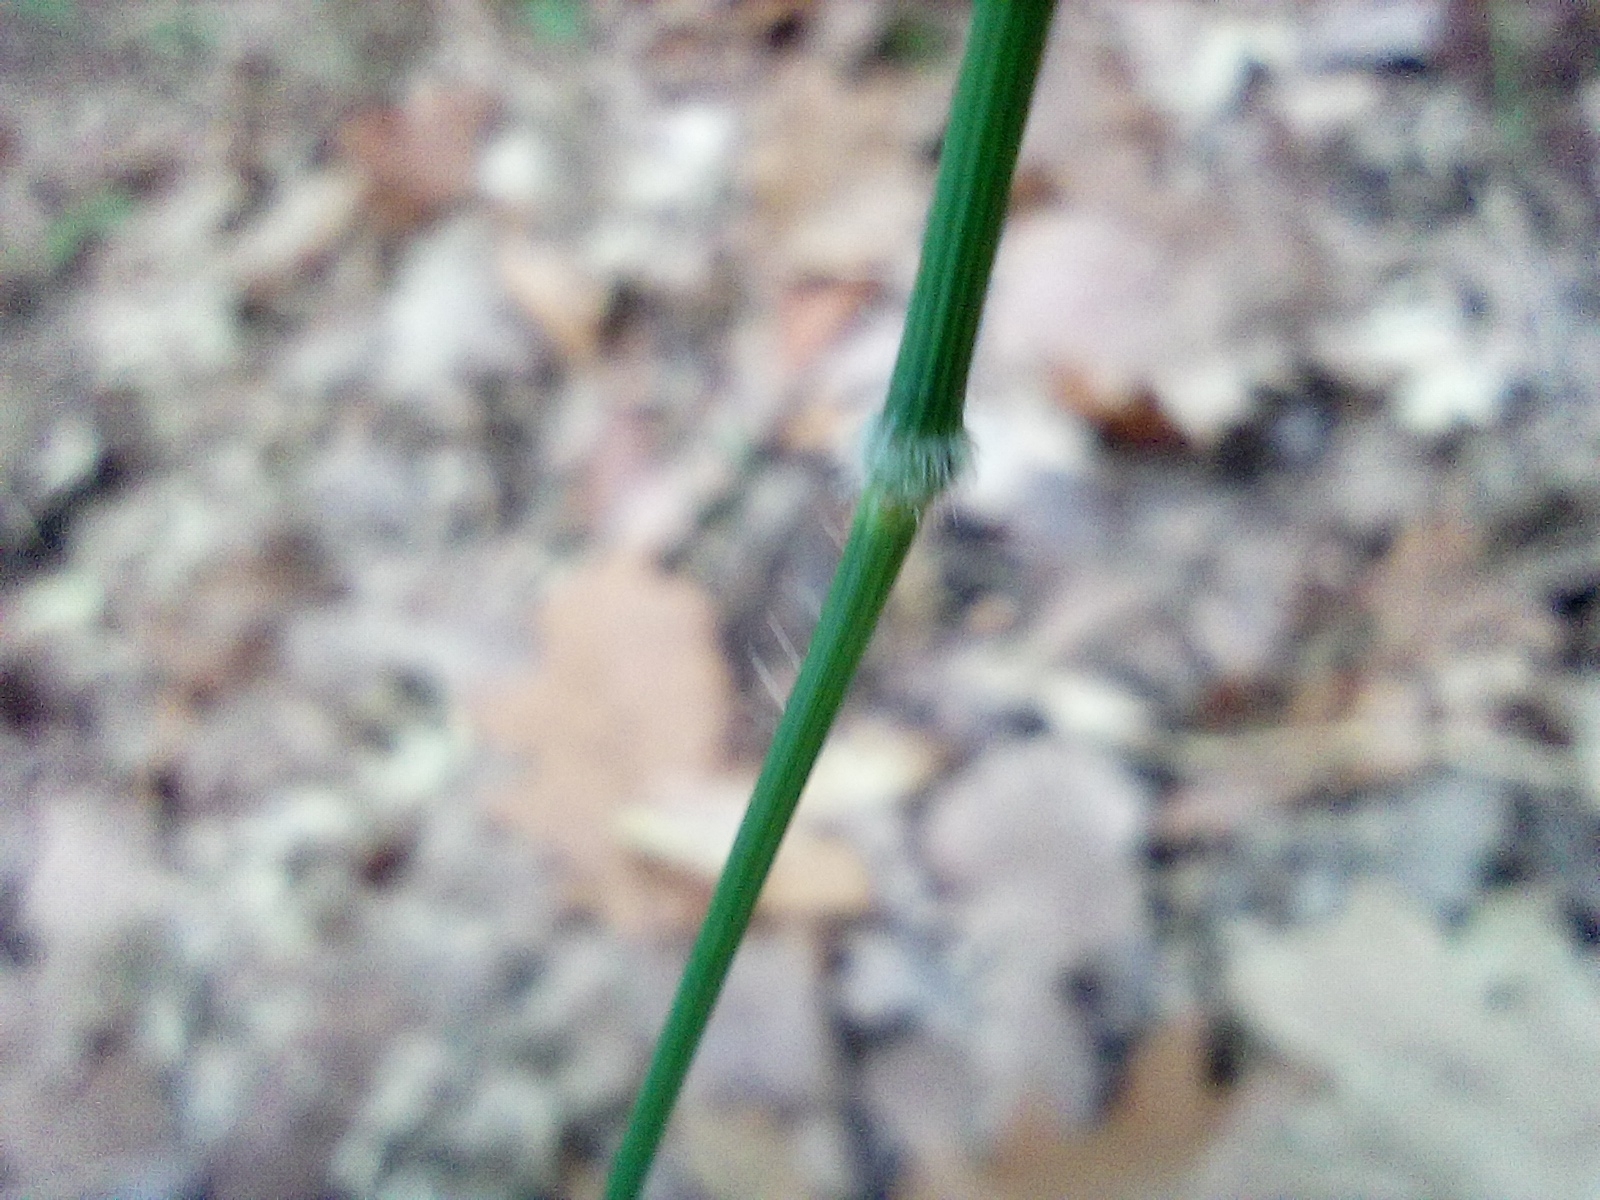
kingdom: Plantae
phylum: Tracheophyta
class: Liliopsida
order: Poales
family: Poaceae
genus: Brachypodium
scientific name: Brachypodium sylvaticum
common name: False-brome
